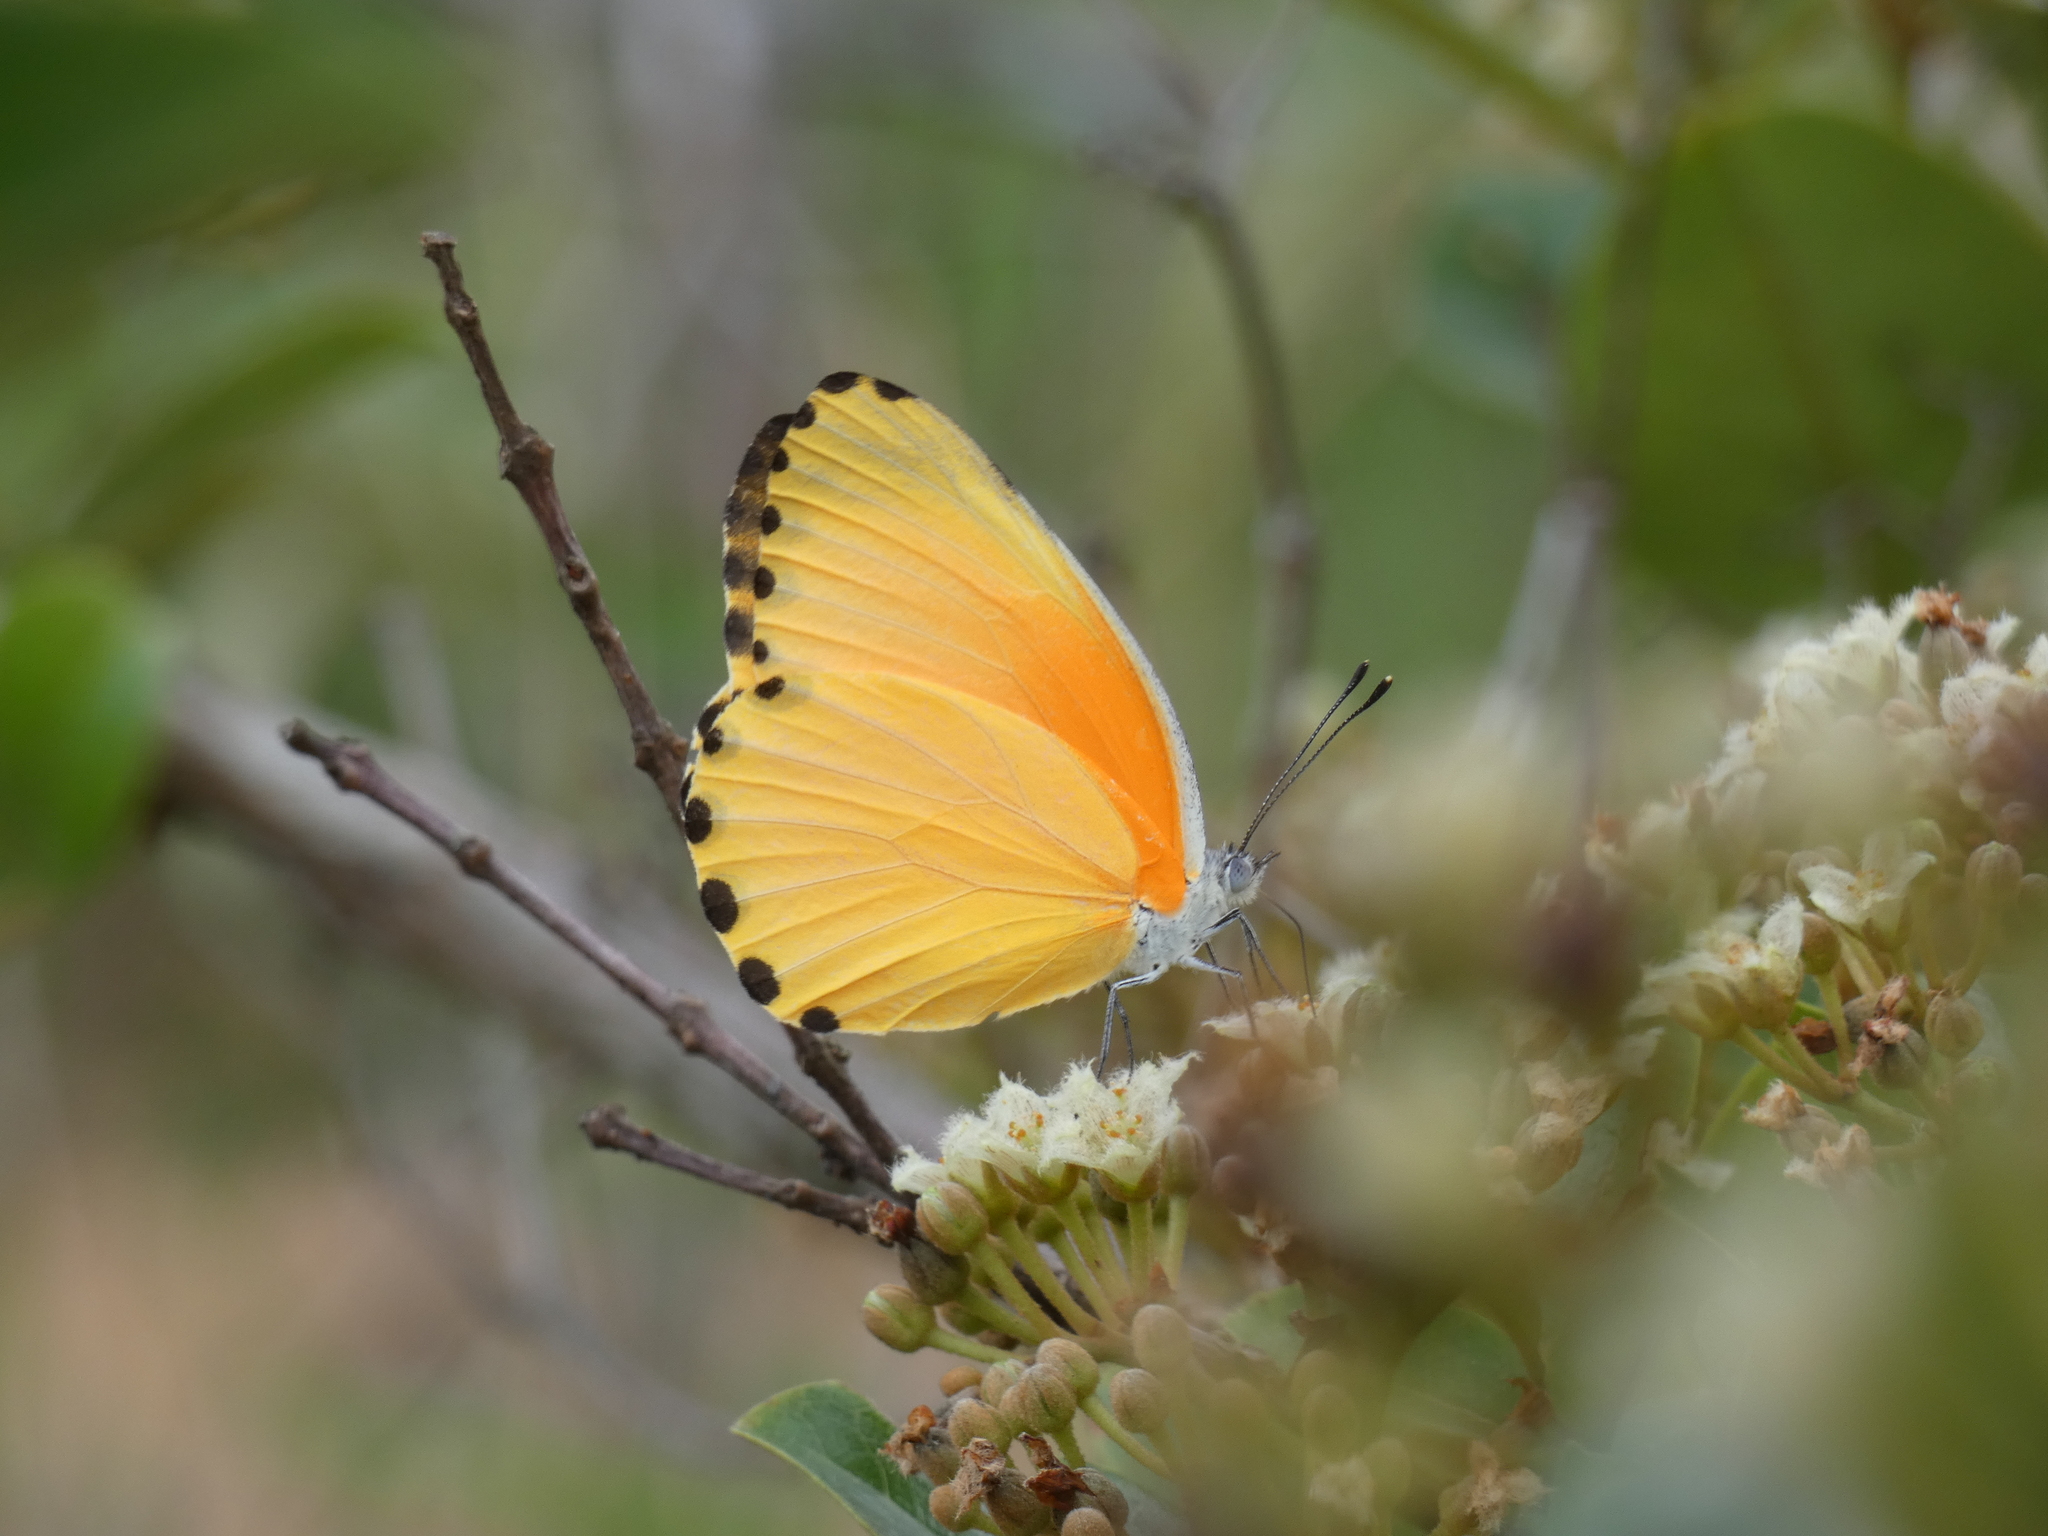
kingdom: Animalia
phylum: Arthropoda
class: Insecta
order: Lepidoptera
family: Pieridae
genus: Mylothris
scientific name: Mylothris agathina
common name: Eastern dotted border
